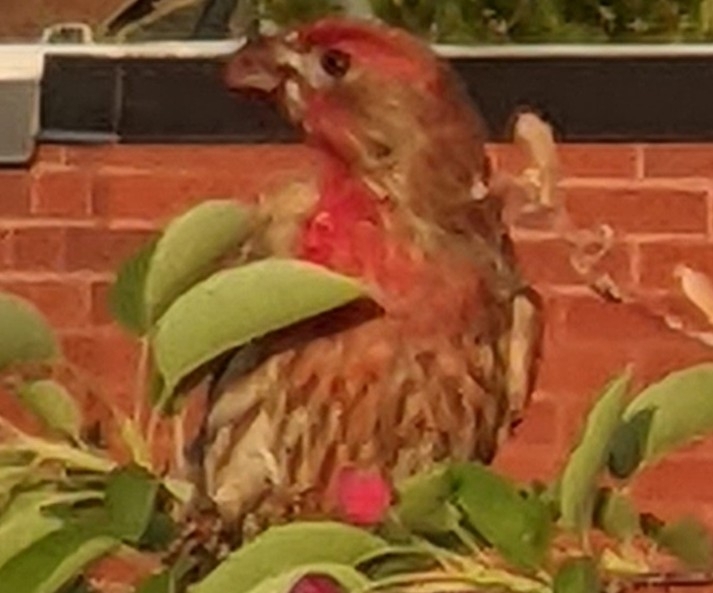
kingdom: Animalia
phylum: Chordata
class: Aves
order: Passeriformes
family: Fringillidae
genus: Haemorhous
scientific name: Haemorhous mexicanus
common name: House finch
